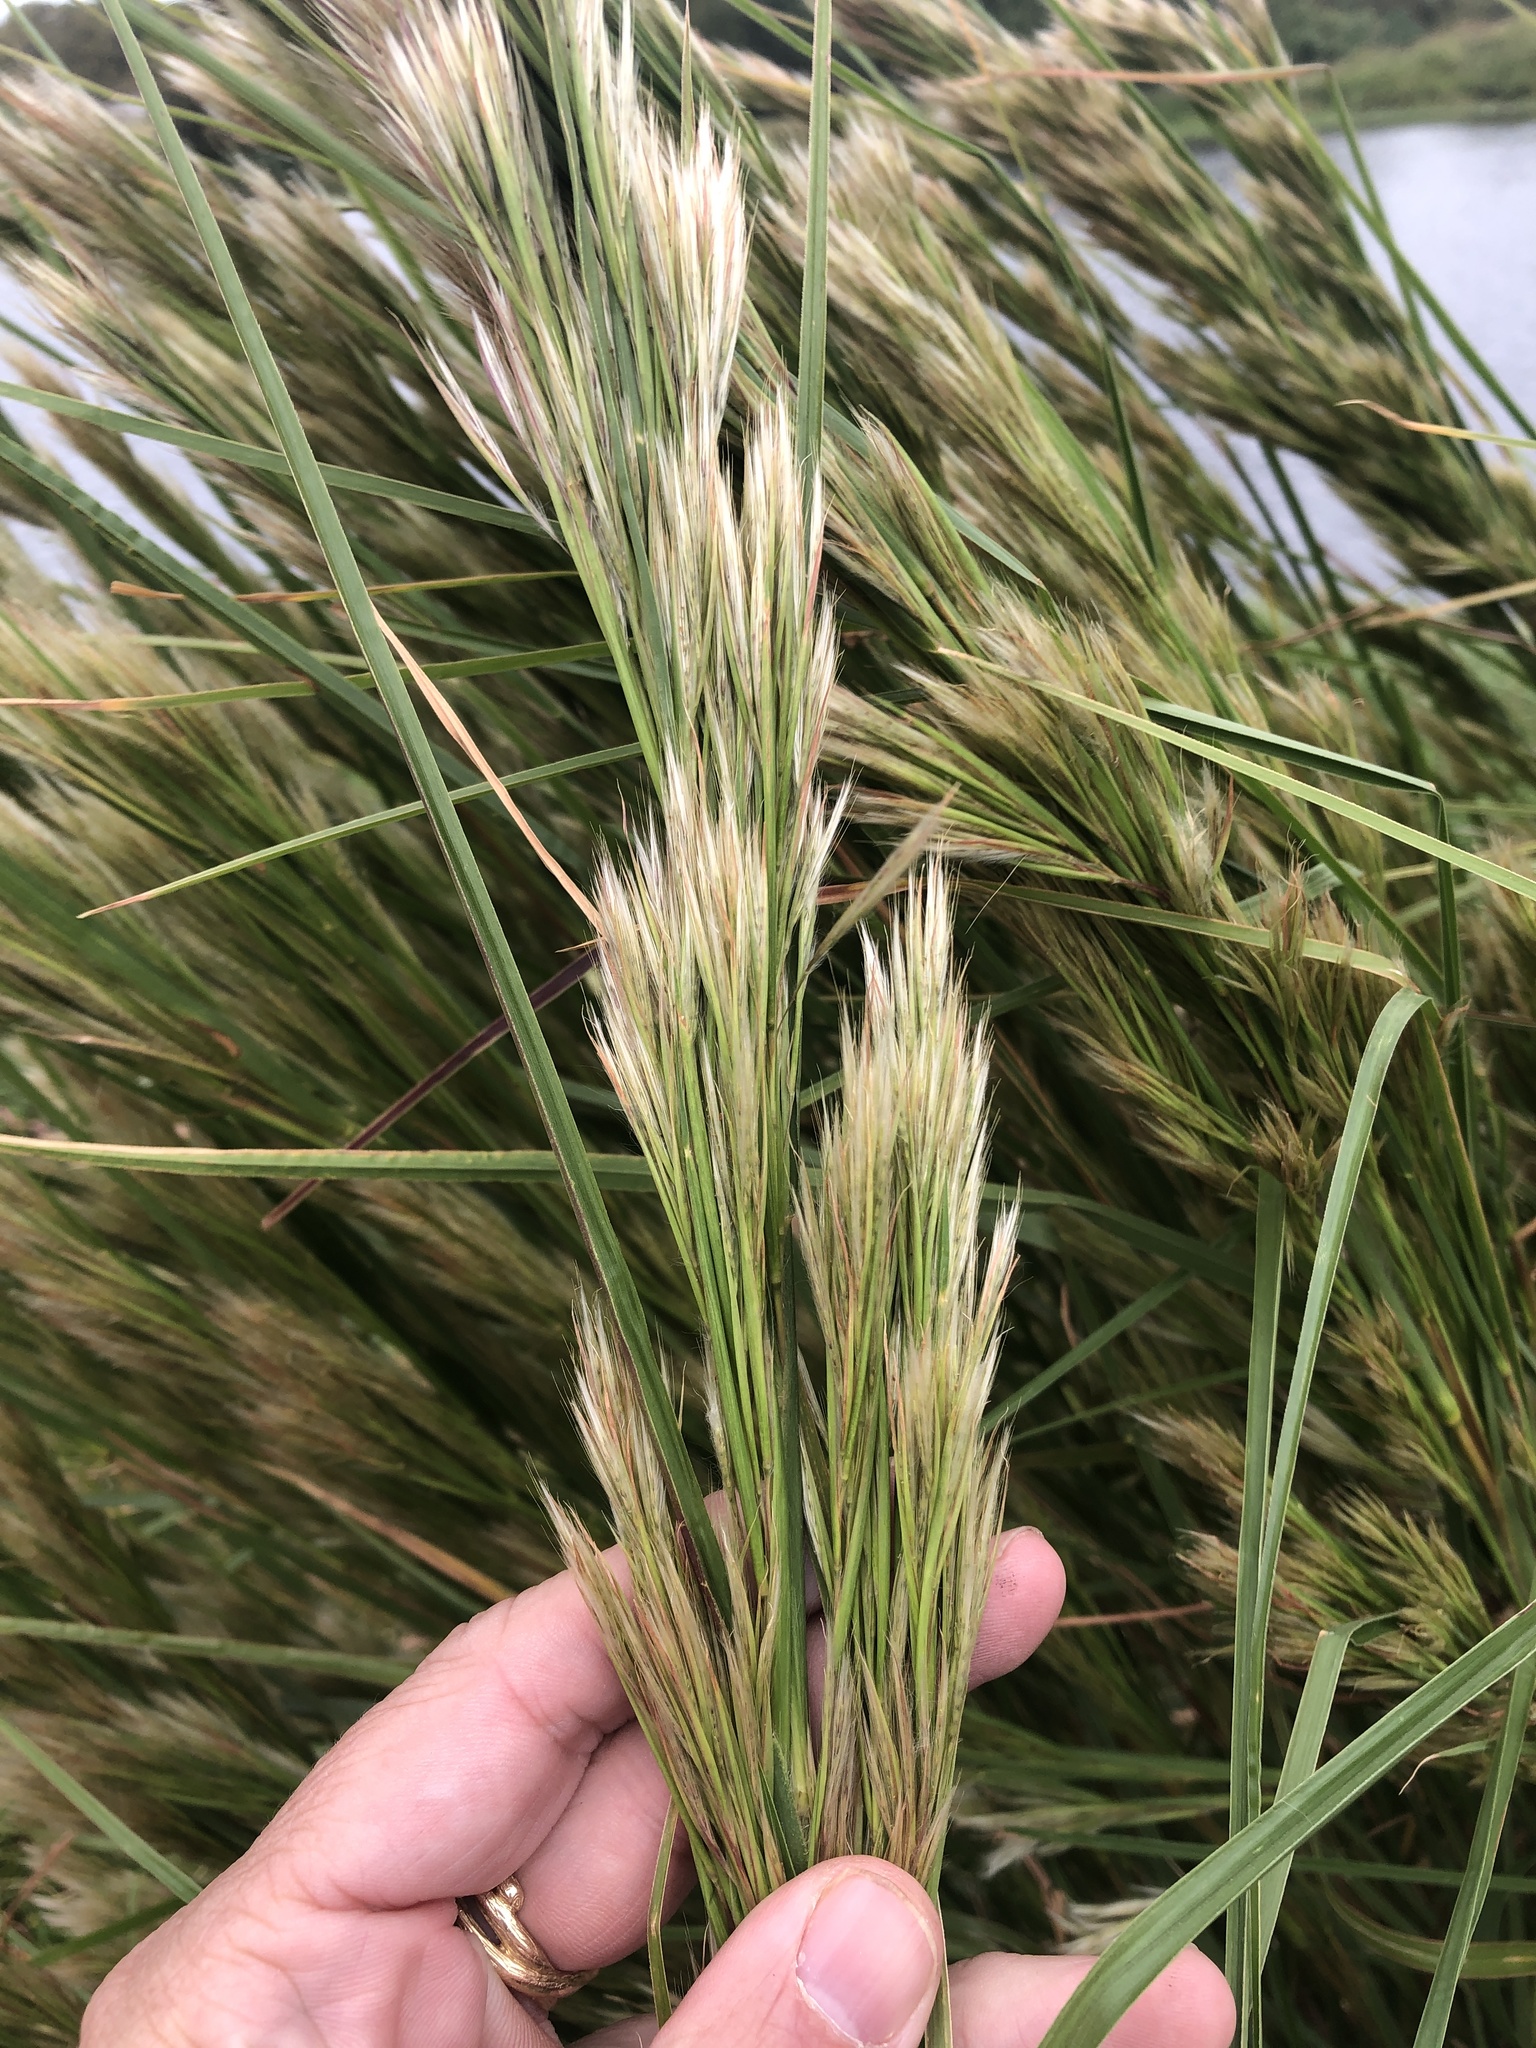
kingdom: Plantae
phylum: Tracheophyta
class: Liliopsida
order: Poales
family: Poaceae
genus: Andropogon
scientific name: Andropogon tenuispatheus
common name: Bushy bluestem
